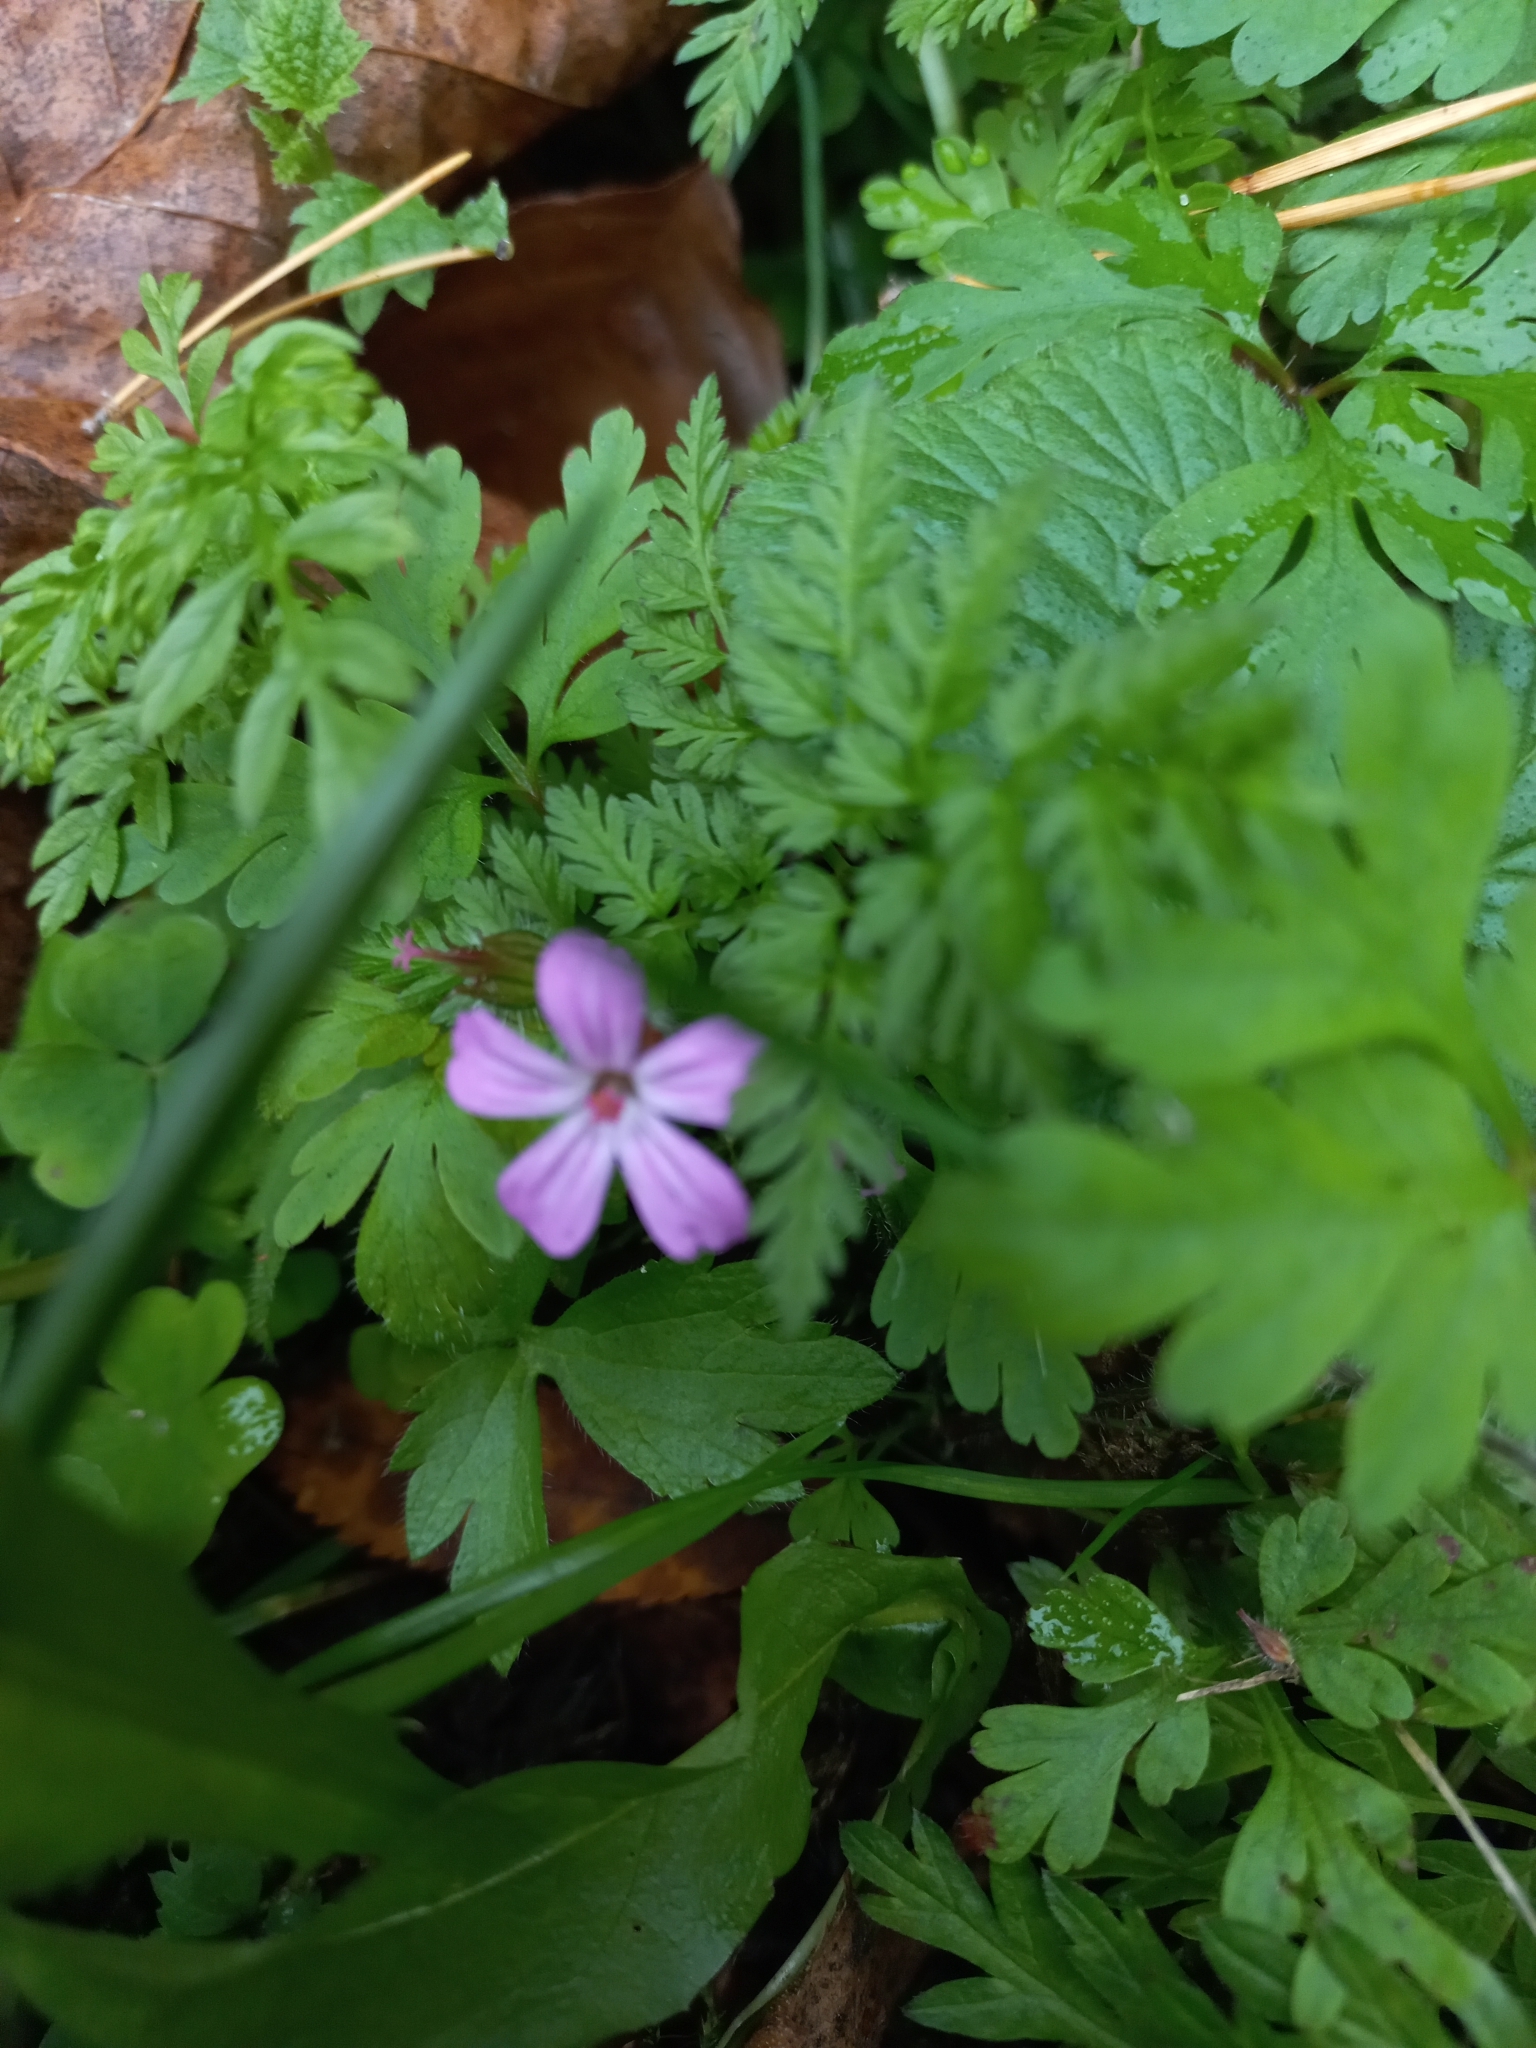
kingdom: Plantae
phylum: Tracheophyta
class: Magnoliopsida
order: Geraniales
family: Geraniaceae
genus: Geranium
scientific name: Geranium robertianum
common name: Herb-robert
